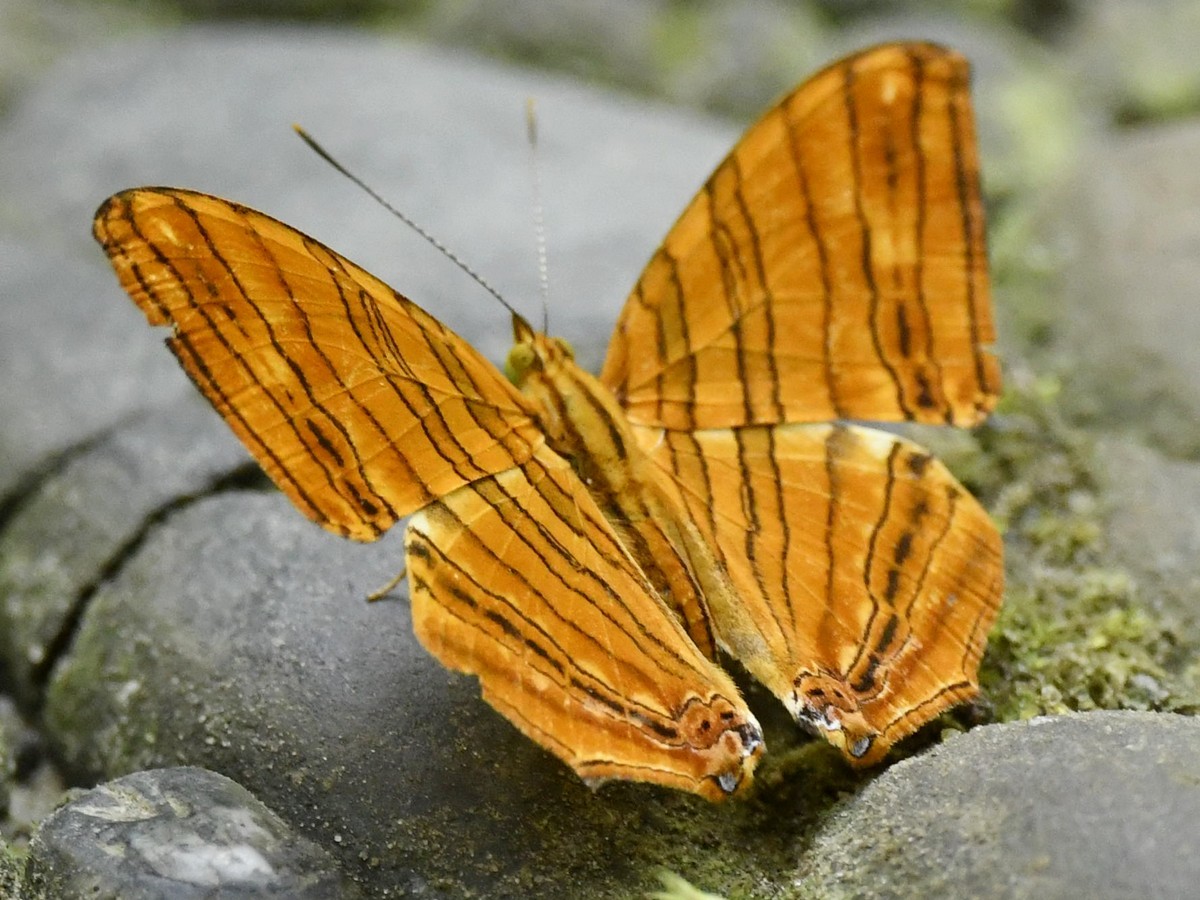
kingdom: Animalia
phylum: Arthropoda
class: Insecta
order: Lepidoptera
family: Nymphalidae
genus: Chersonesia
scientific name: Chersonesia risa
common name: Common maplet
